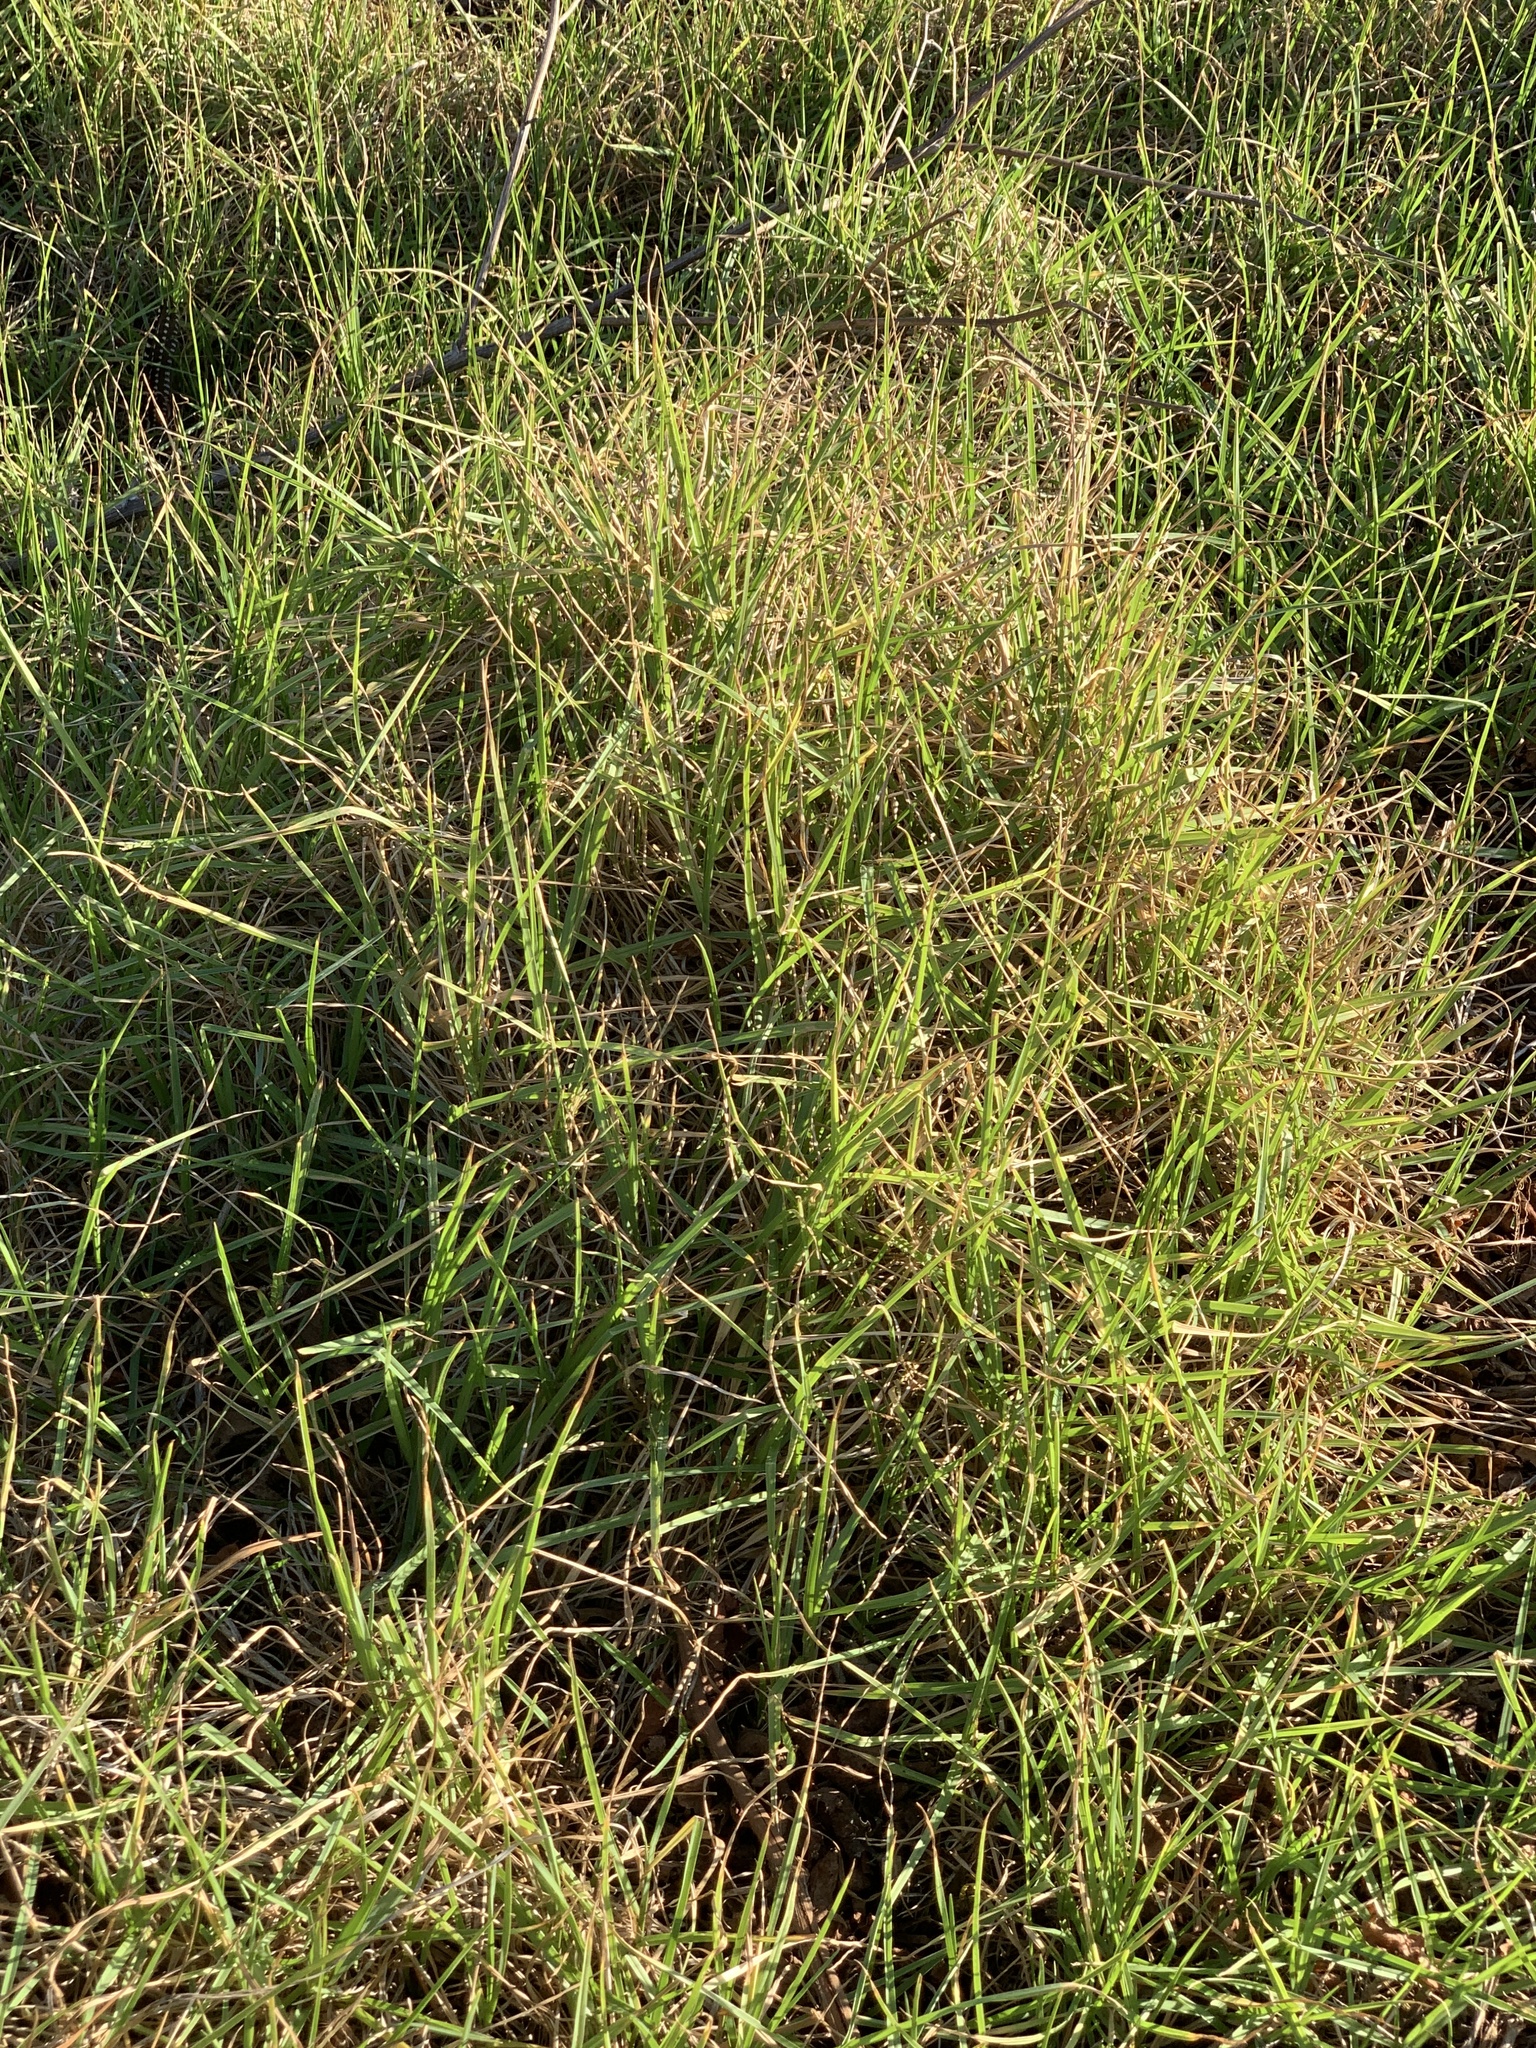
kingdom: Plantae
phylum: Tracheophyta
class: Liliopsida
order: Poales
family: Poaceae
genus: Cenchrus
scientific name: Cenchrus clandestinus
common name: Kikuyugrass
